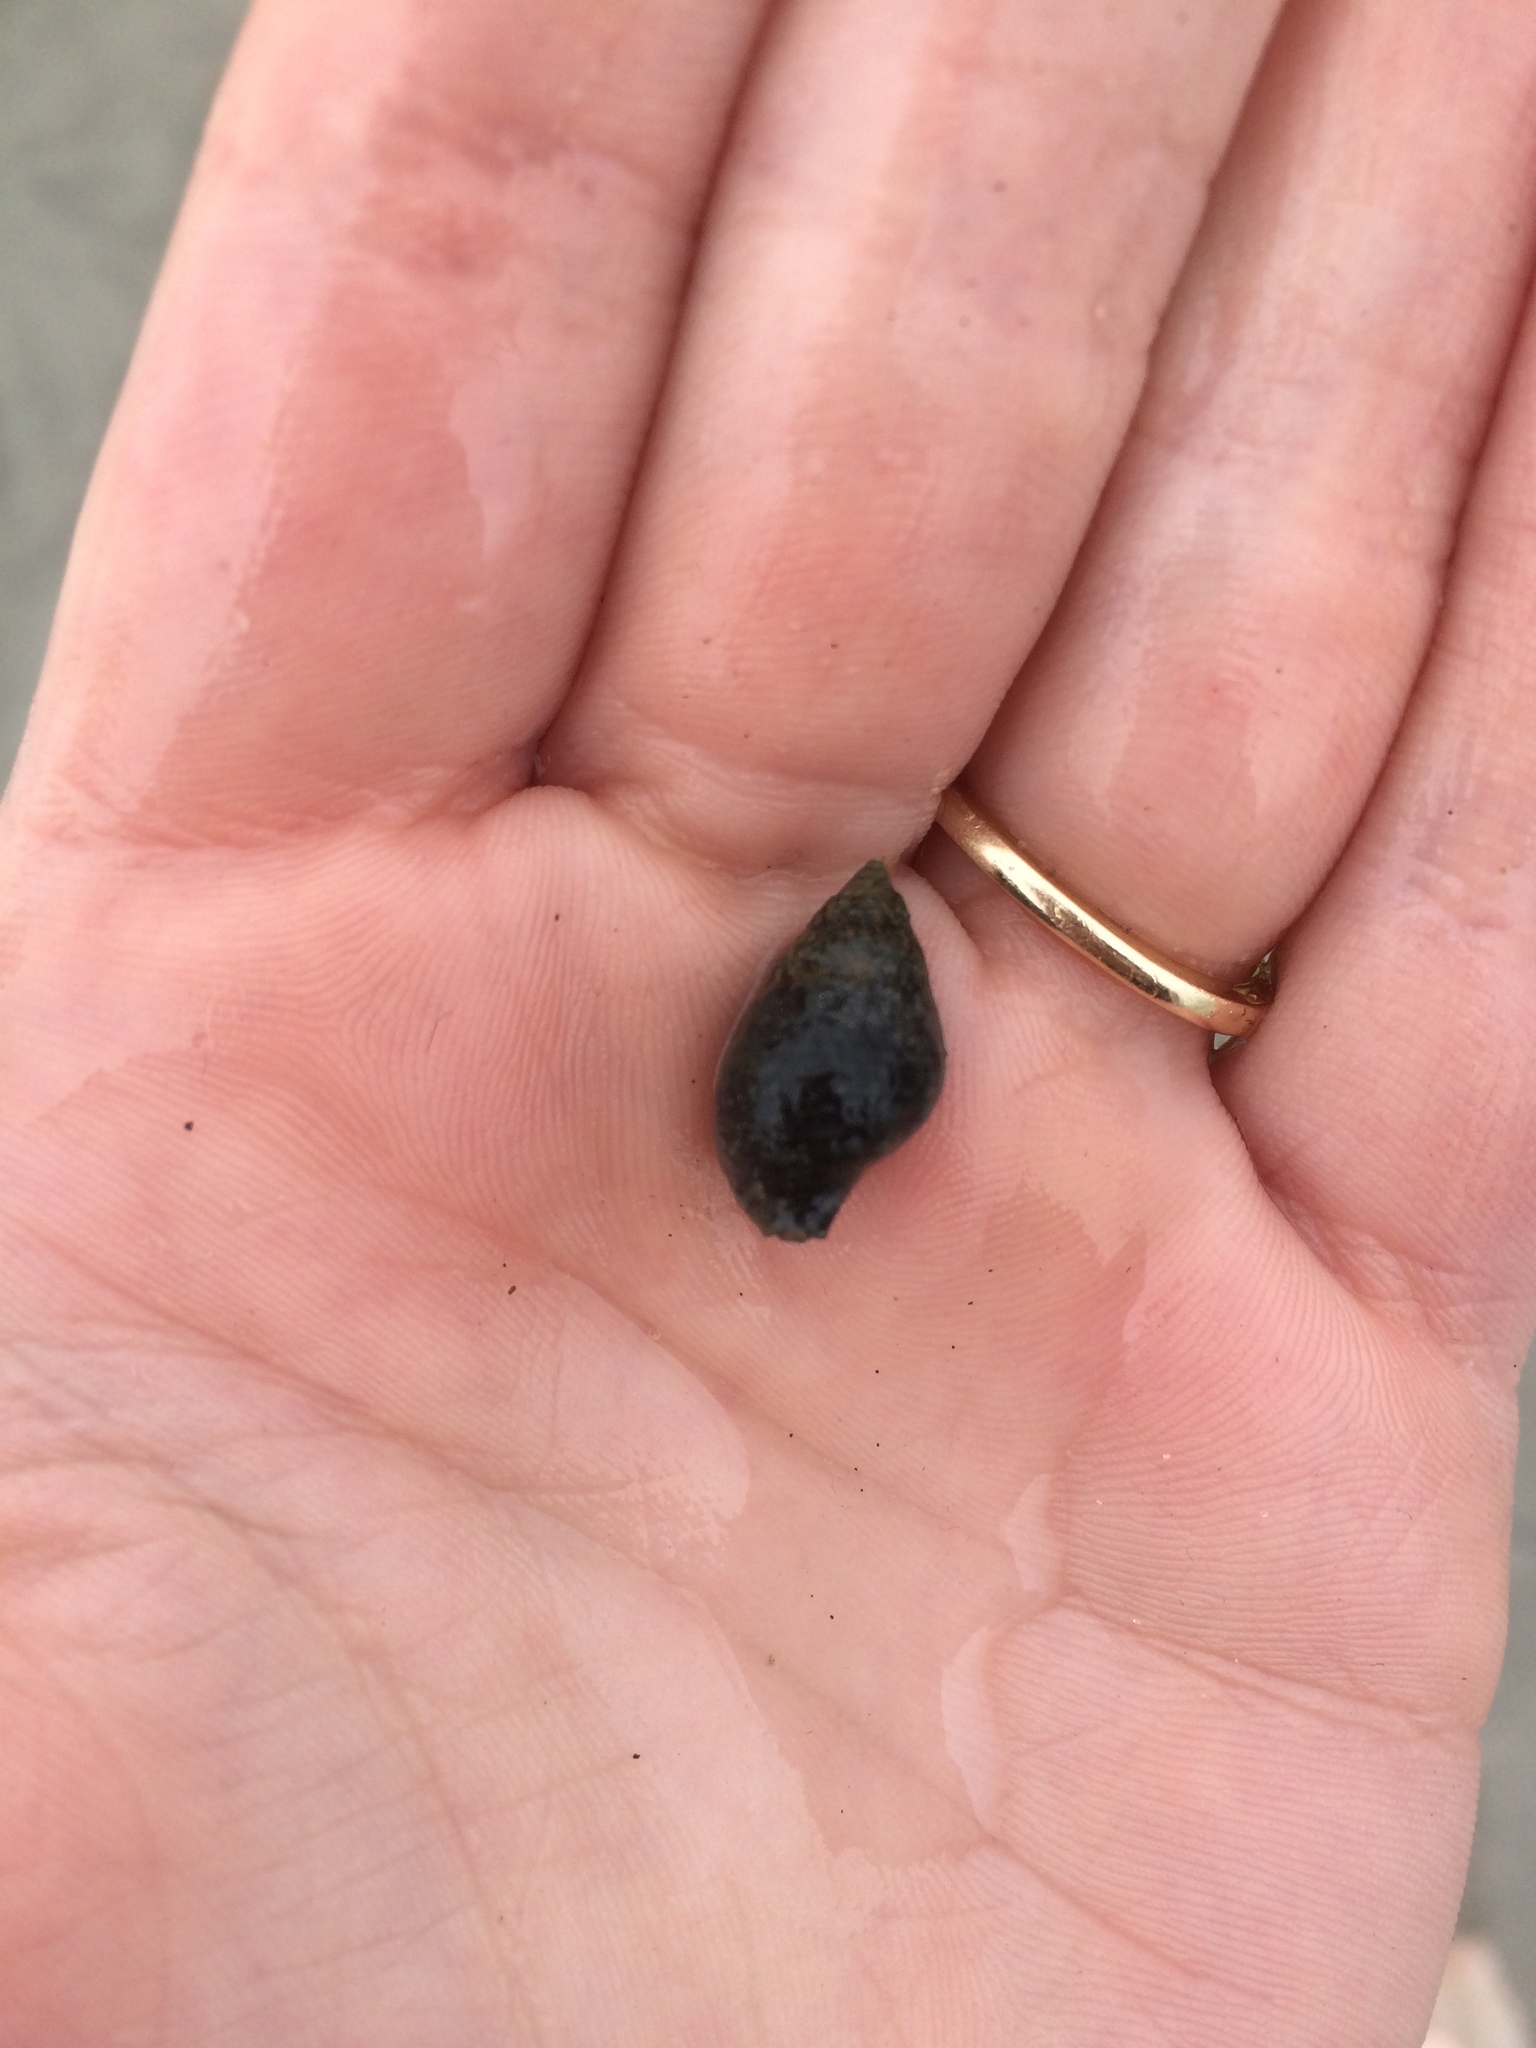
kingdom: Animalia
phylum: Mollusca
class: Gastropoda
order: Neogastropoda
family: Nassariidae
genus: Ilyanassa
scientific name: Ilyanassa obsoleta
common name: Eastern mudsnail
